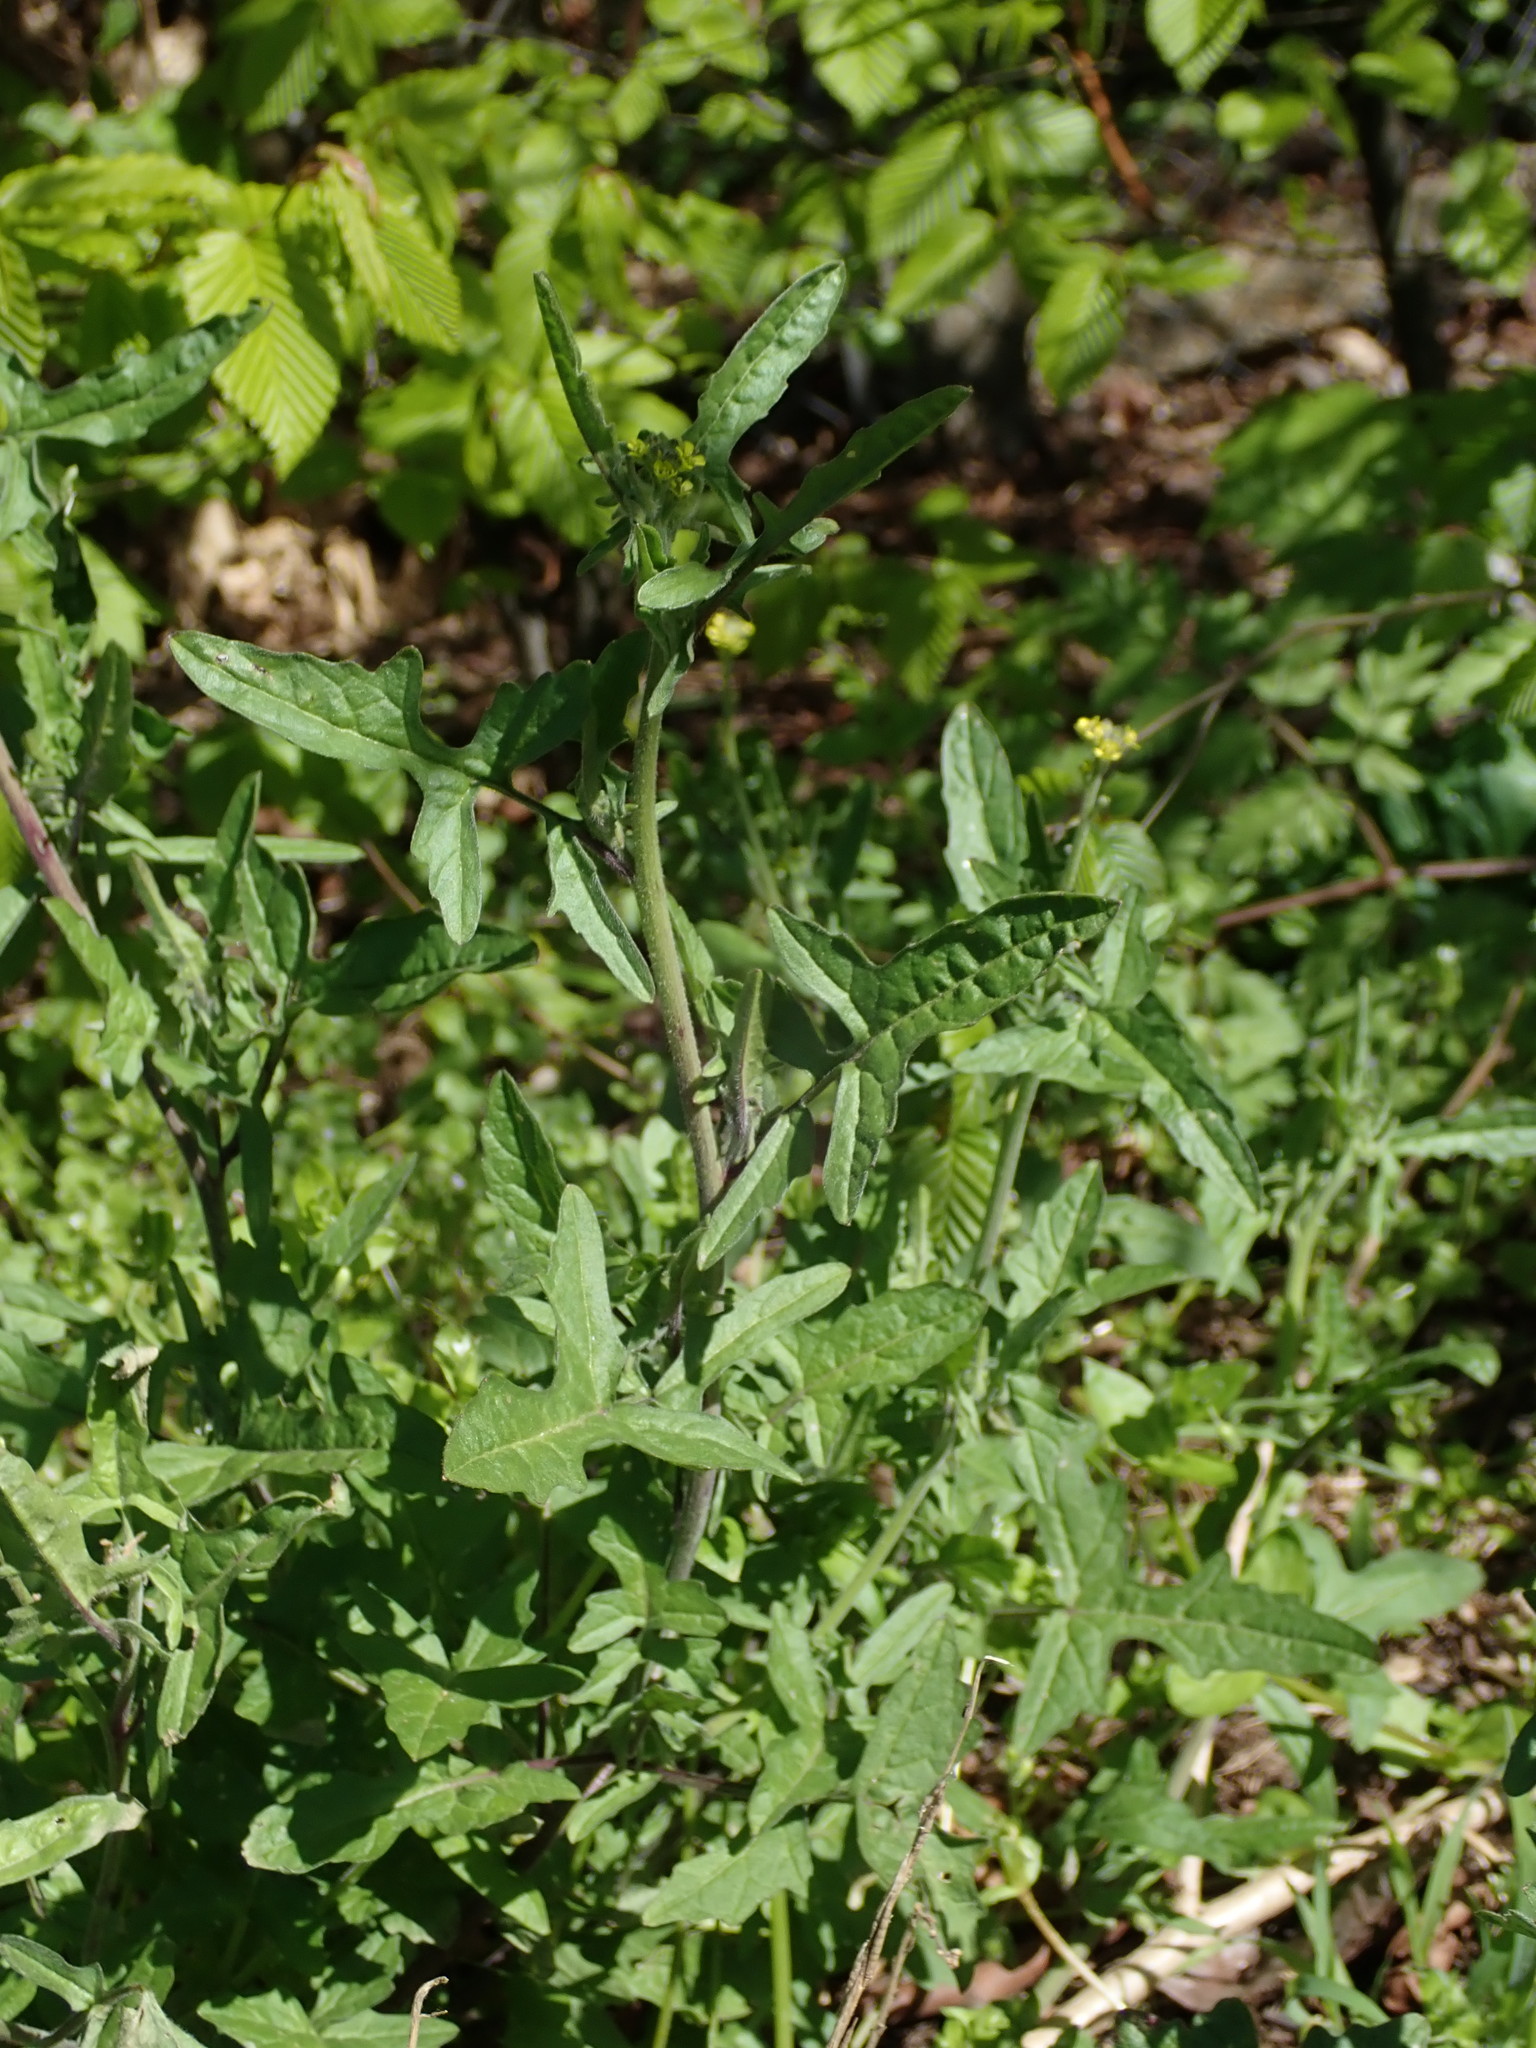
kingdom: Plantae
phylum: Tracheophyta
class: Magnoliopsida
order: Brassicales
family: Brassicaceae
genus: Sisymbrium
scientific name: Sisymbrium officinale
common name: Hedge mustard
